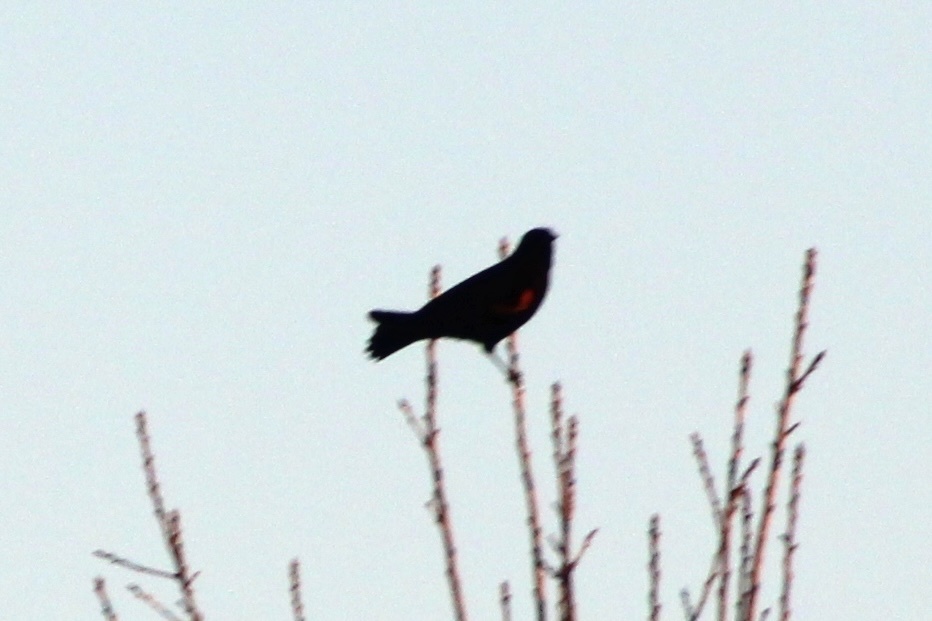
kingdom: Animalia
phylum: Chordata
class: Aves
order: Passeriformes
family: Icteridae
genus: Agelaius
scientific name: Agelaius phoeniceus
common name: Red-winged blackbird
